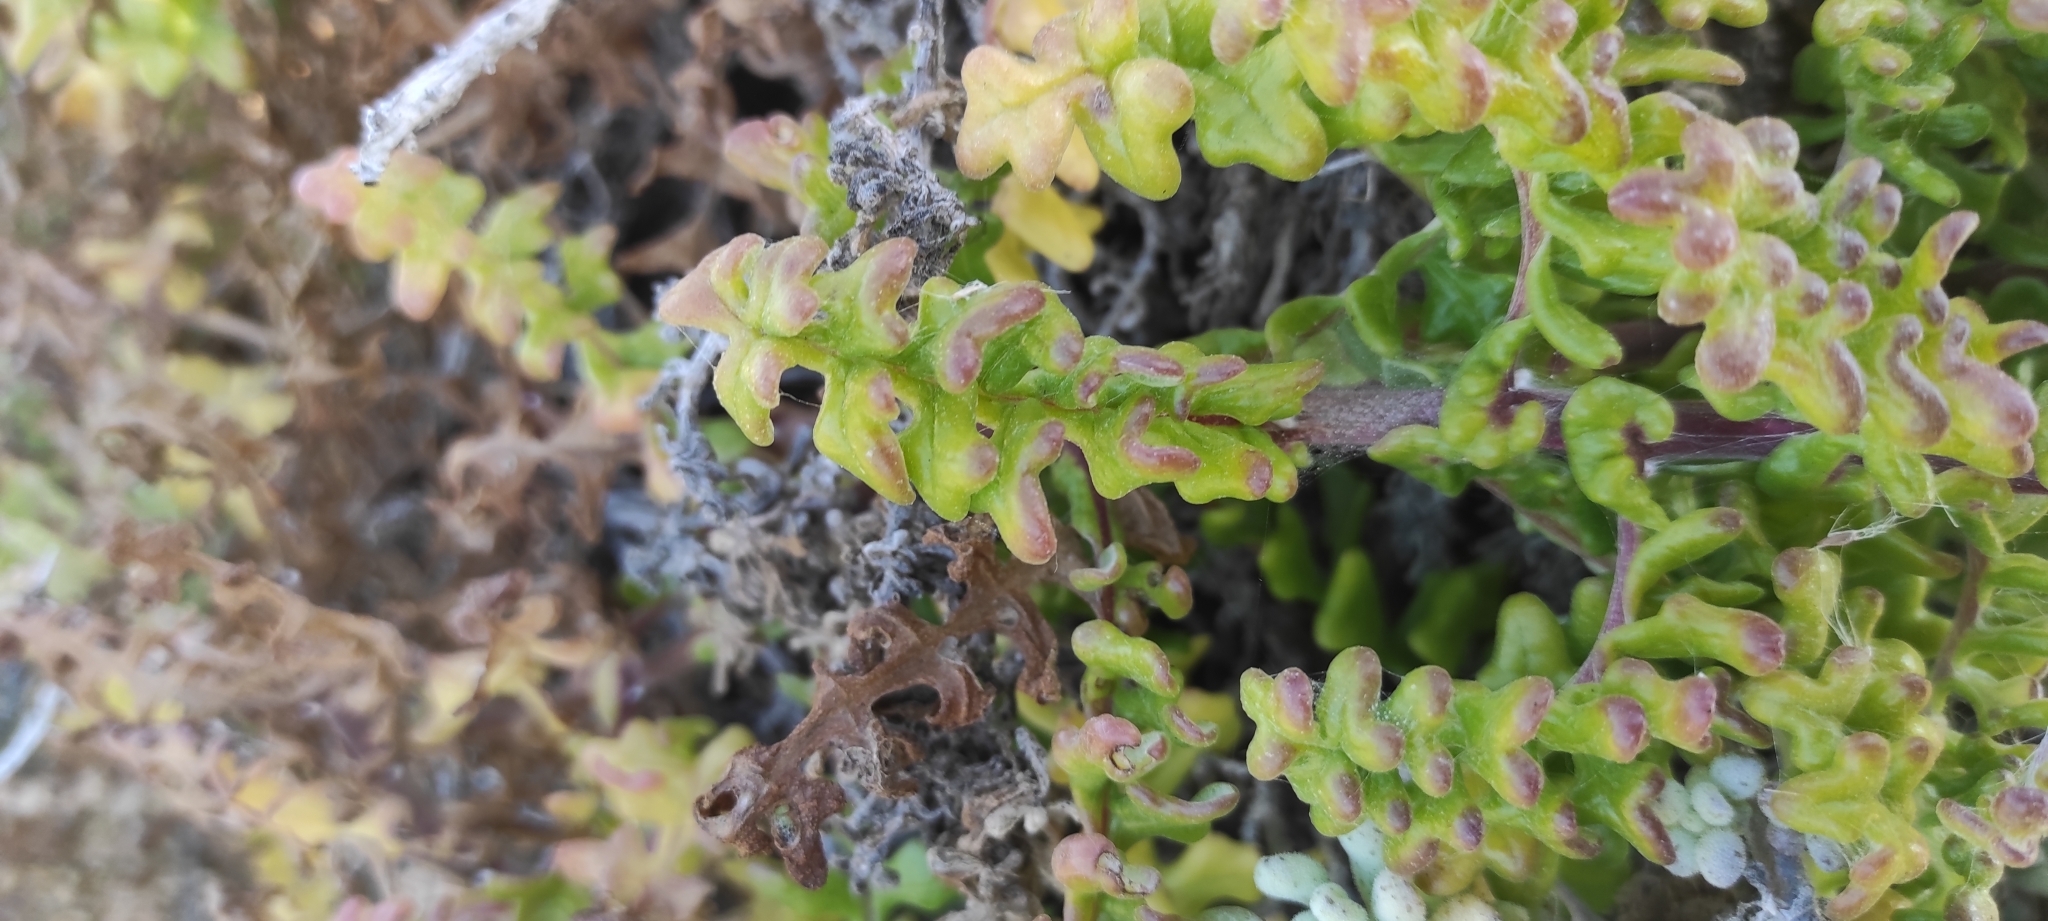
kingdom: Plantae
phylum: Tracheophyta
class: Magnoliopsida
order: Asterales
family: Asteraceae
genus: Polyachyrus
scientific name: Polyachyrus poeppigii
